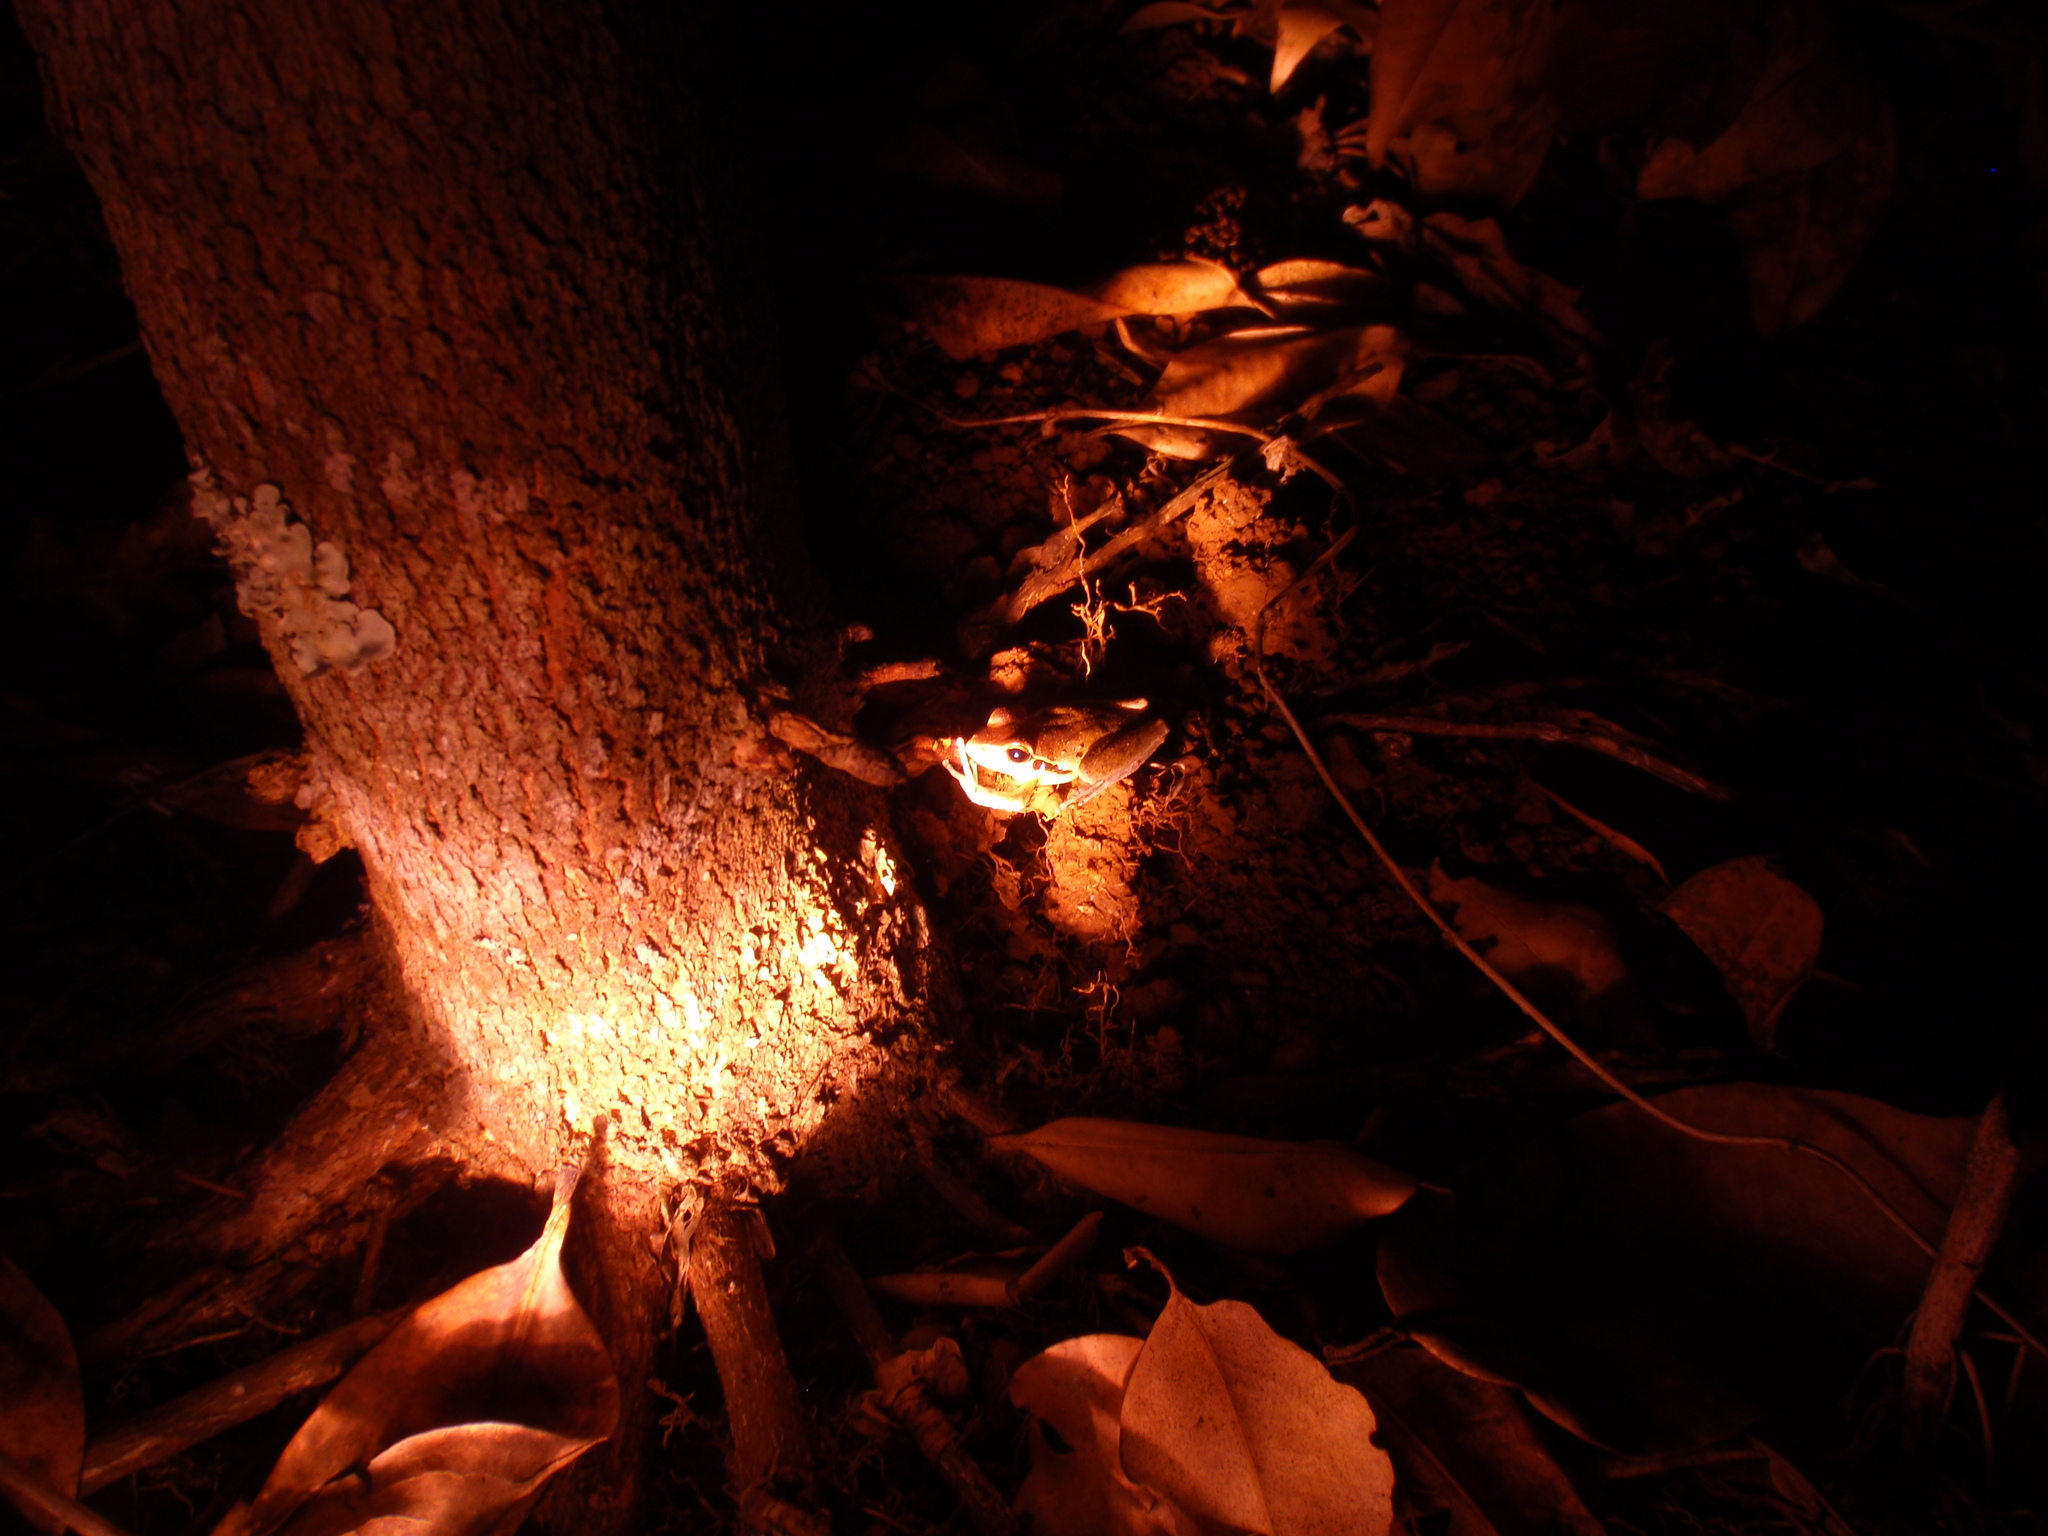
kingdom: Animalia
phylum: Chordata
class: Amphibia
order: Anura
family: Hylidae
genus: Ranoidea
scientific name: Ranoidea
